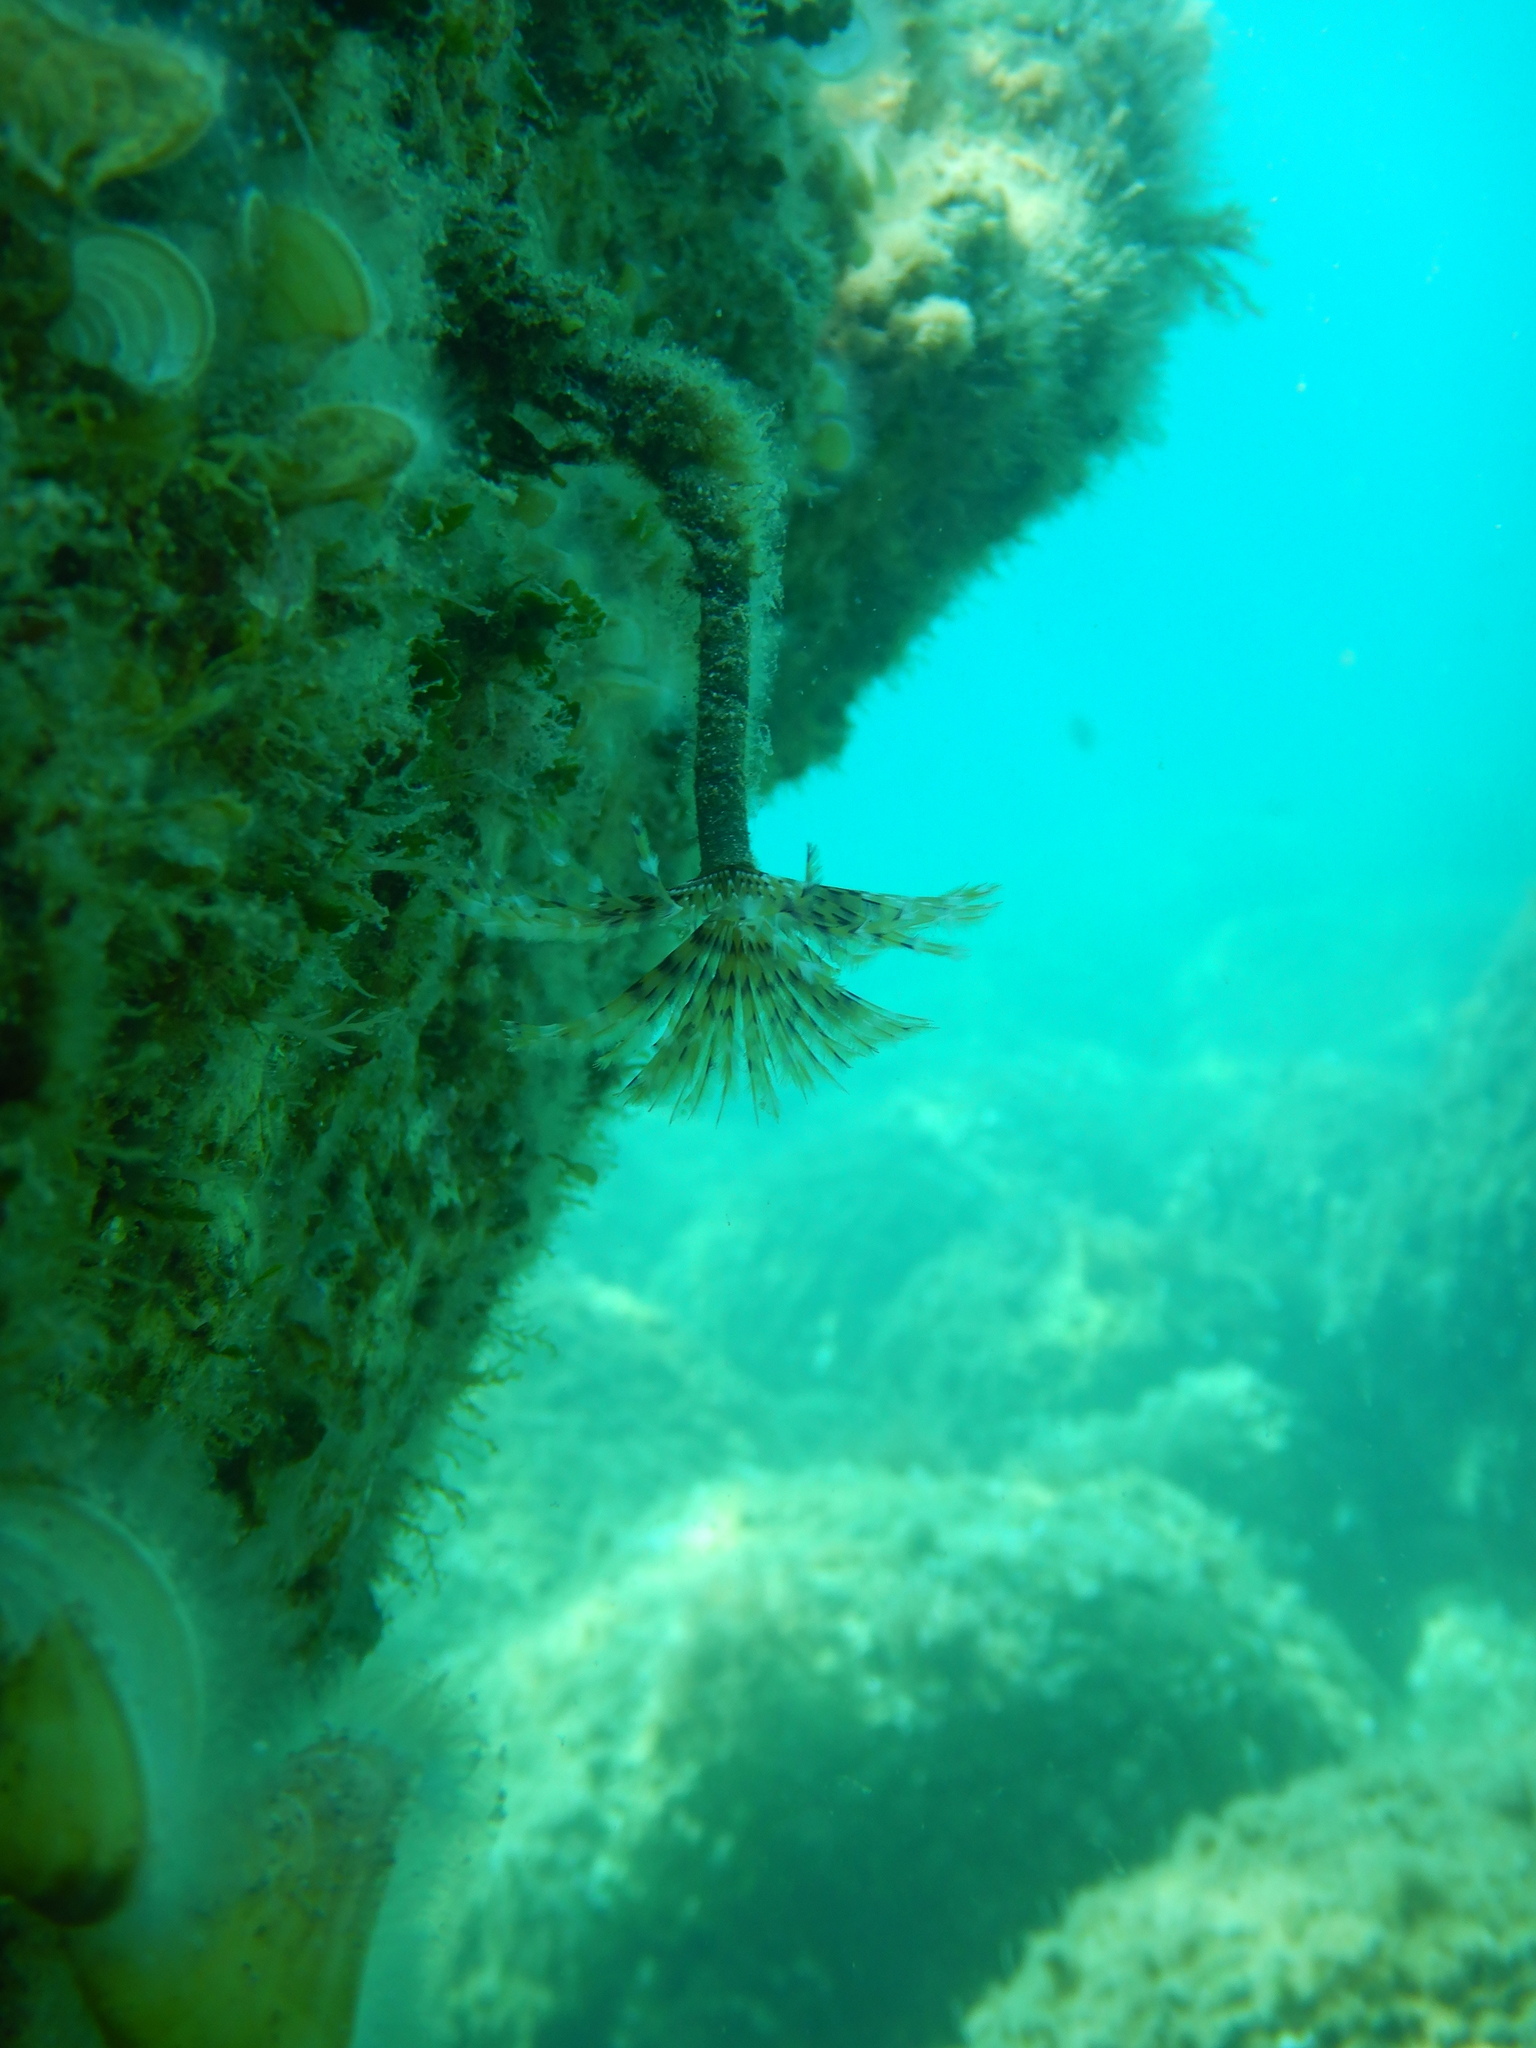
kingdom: Animalia
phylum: Annelida
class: Polychaeta
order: Sabellida
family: Sabellidae
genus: Sabella
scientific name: Sabella spallanzanii
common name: Feather duster worm
